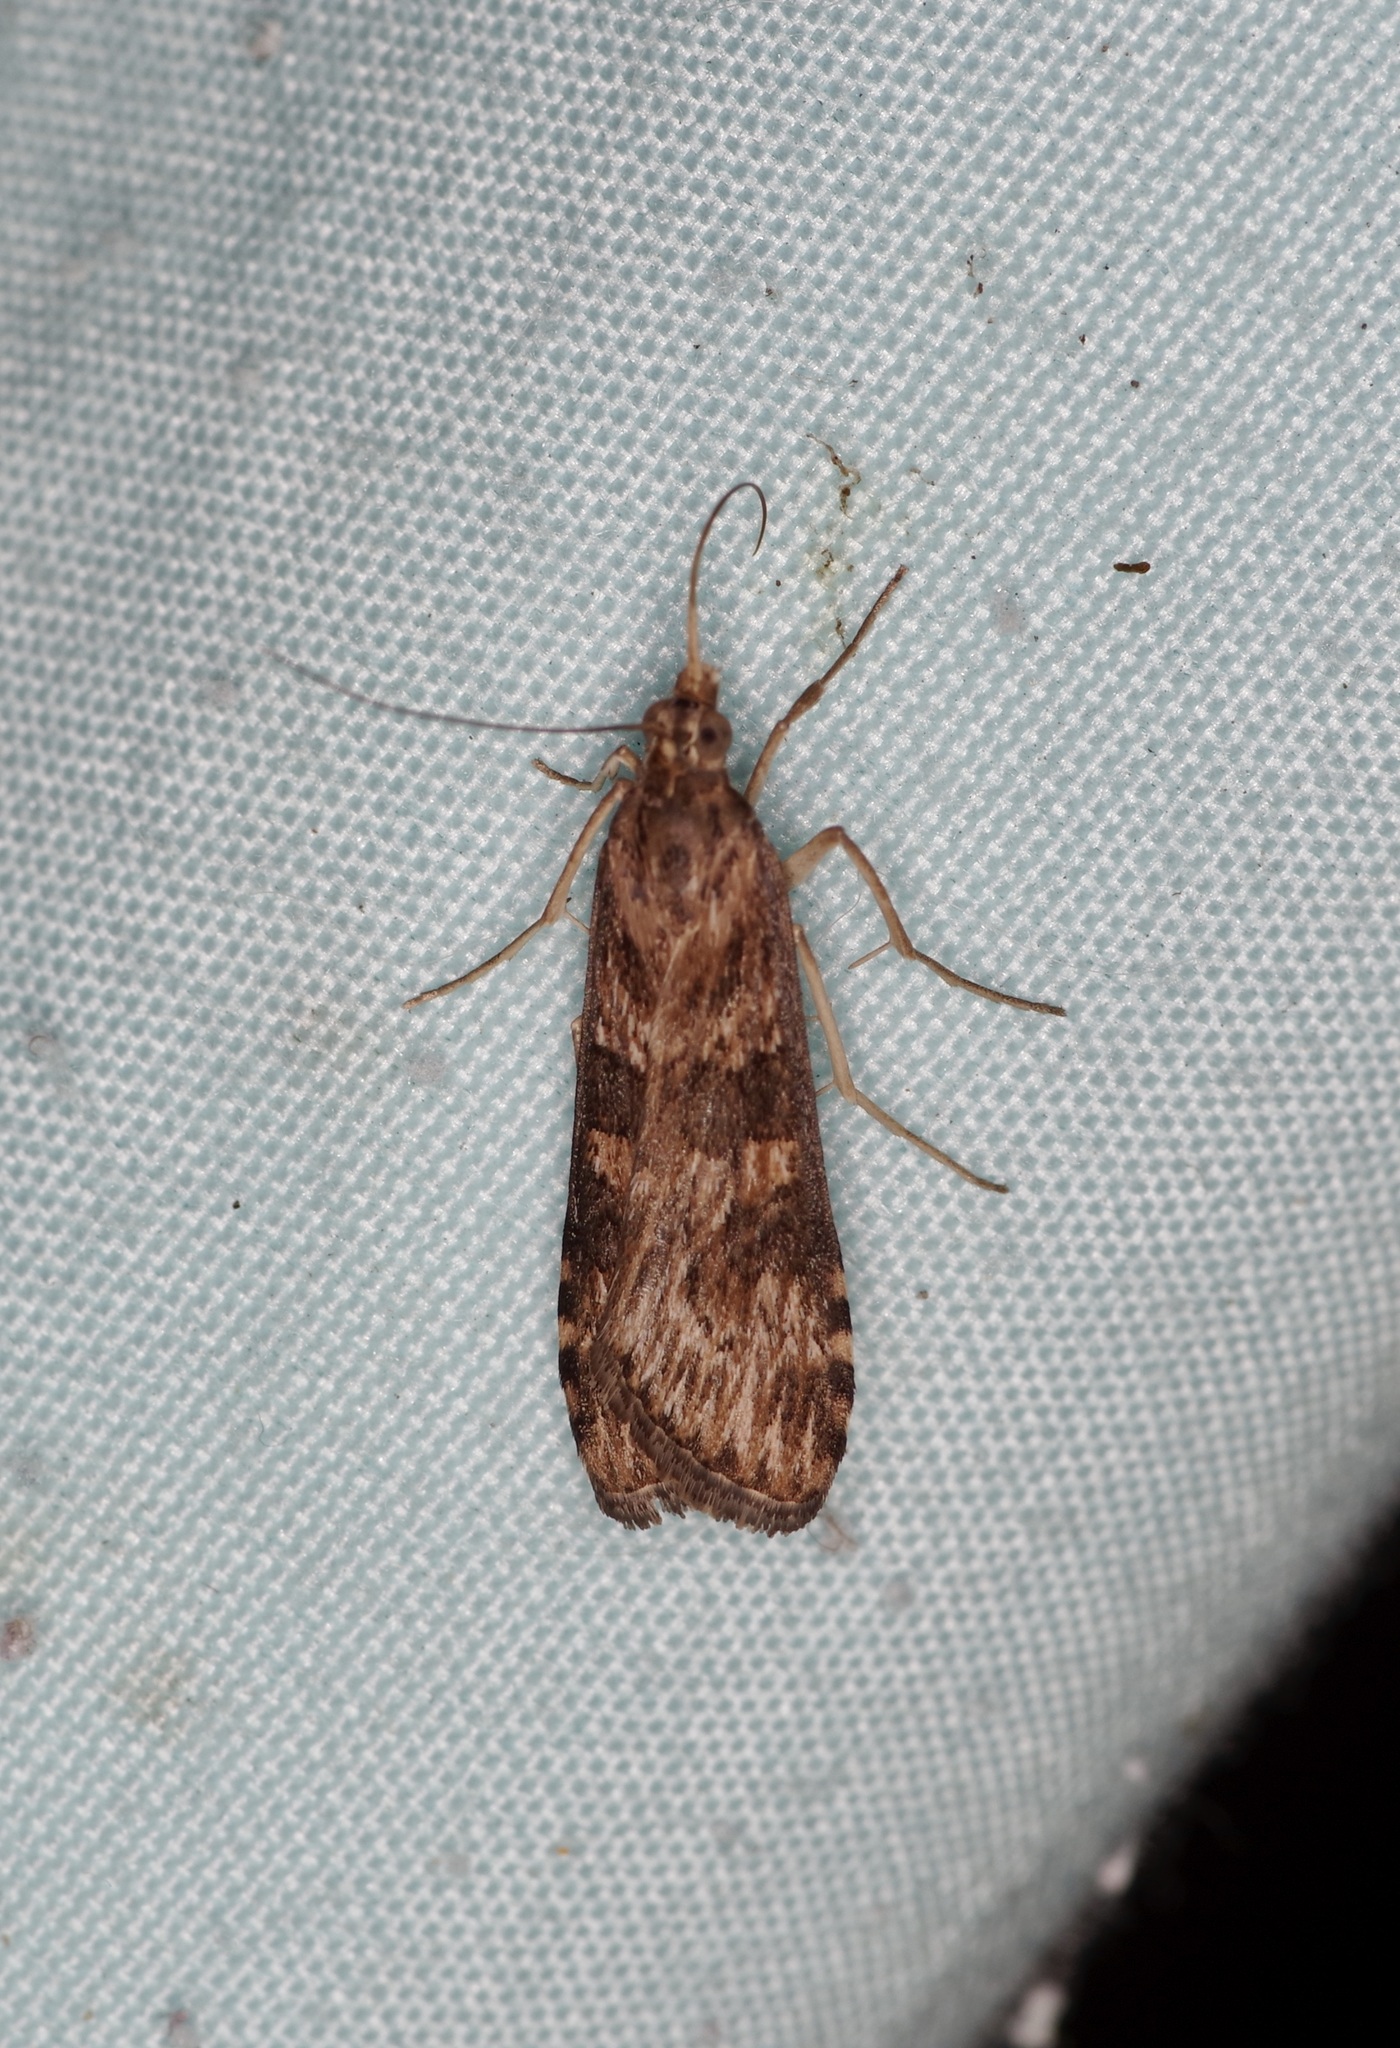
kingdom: Animalia
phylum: Arthropoda
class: Insecta
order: Lepidoptera
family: Crambidae
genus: Nomophila
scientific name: Nomophila nearctica
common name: American rush veneer
